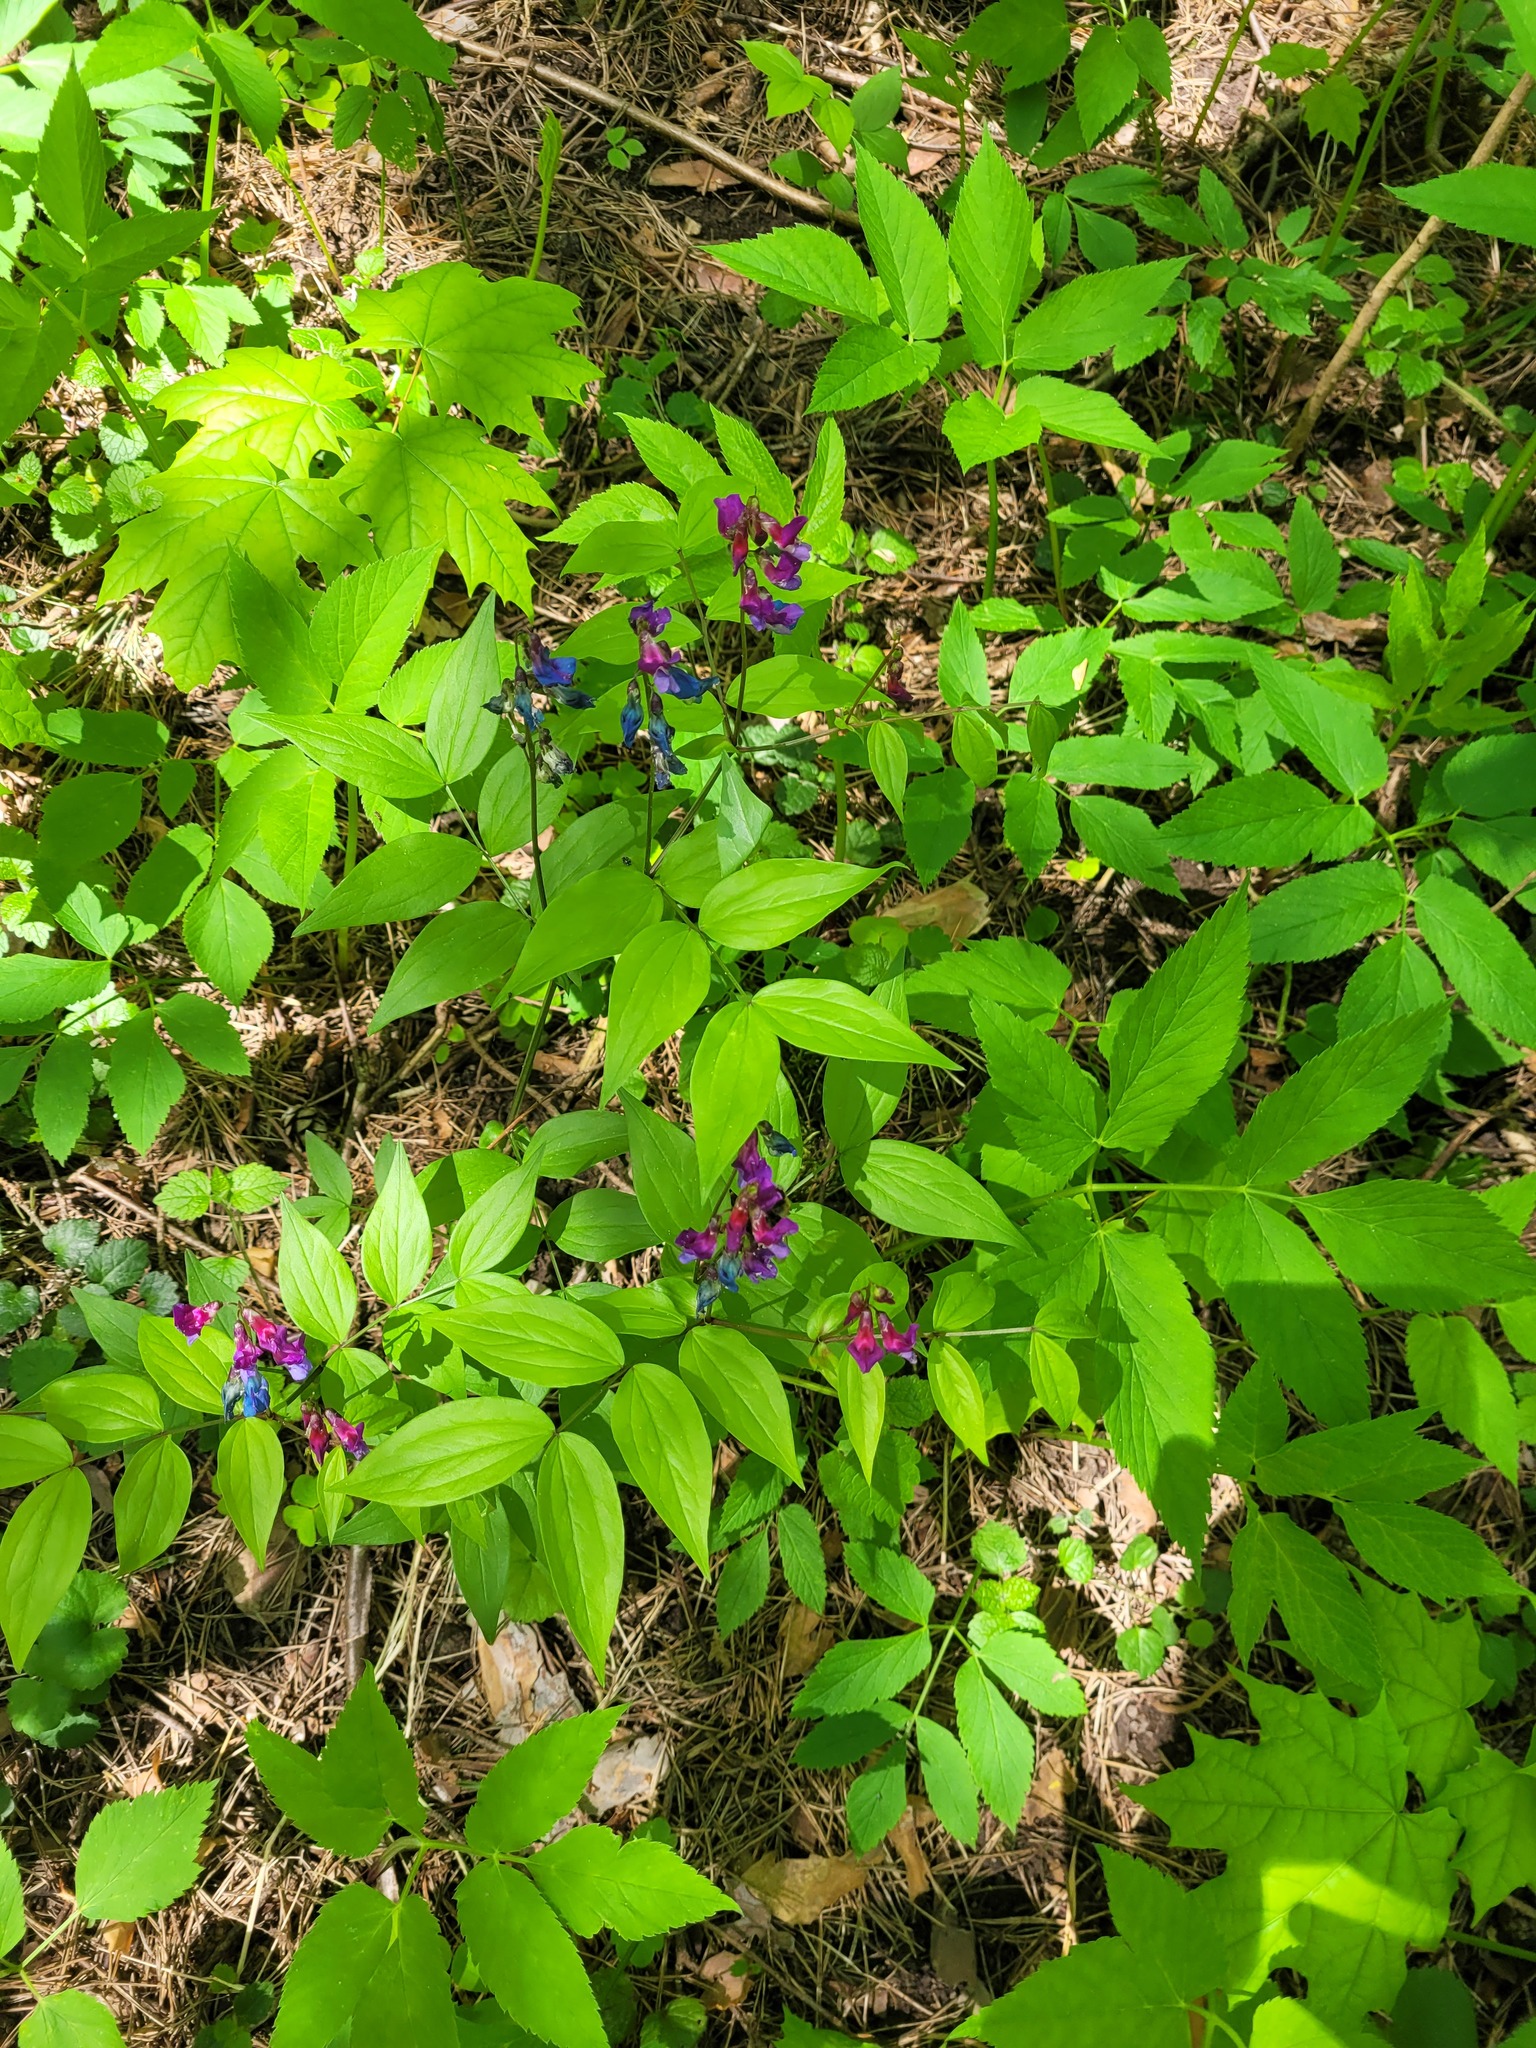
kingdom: Plantae
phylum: Tracheophyta
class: Magnoliopsida
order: Fabales
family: Fabaceae
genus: Lathyrus
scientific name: Lathyrus vernus
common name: Spring pea
